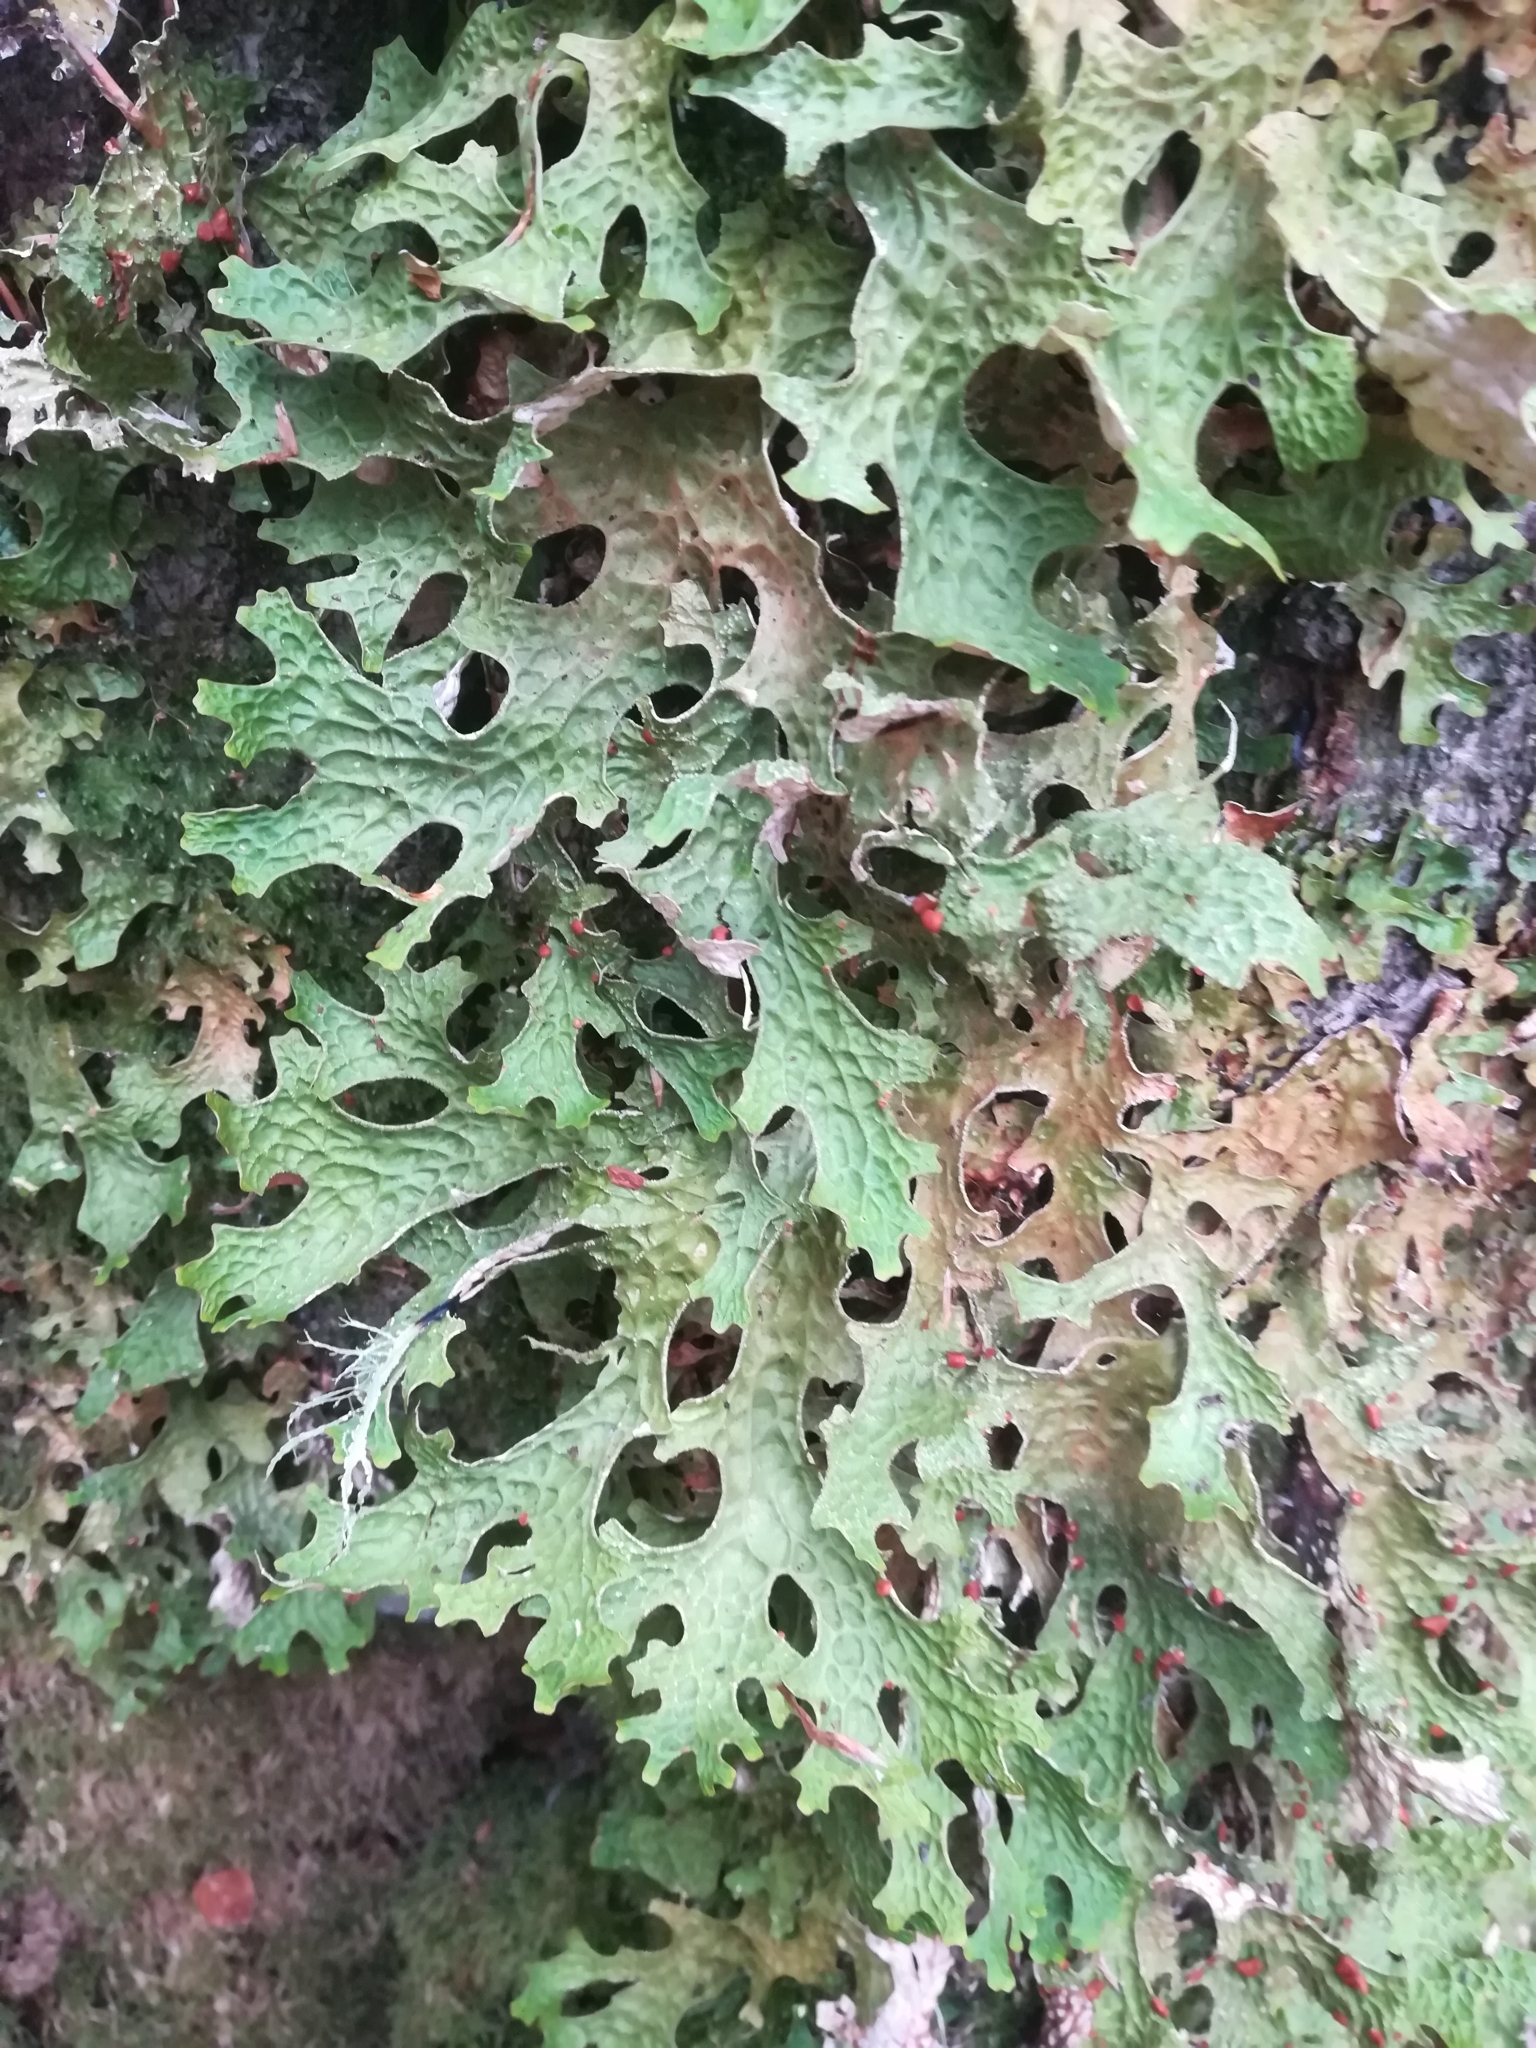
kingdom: Fungi
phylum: Ascomycota
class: Lecanoromycetes
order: Peltigerales
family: Lobariaceae
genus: Lobaria
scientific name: Lobaria pulmonaria
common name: Lungwort
